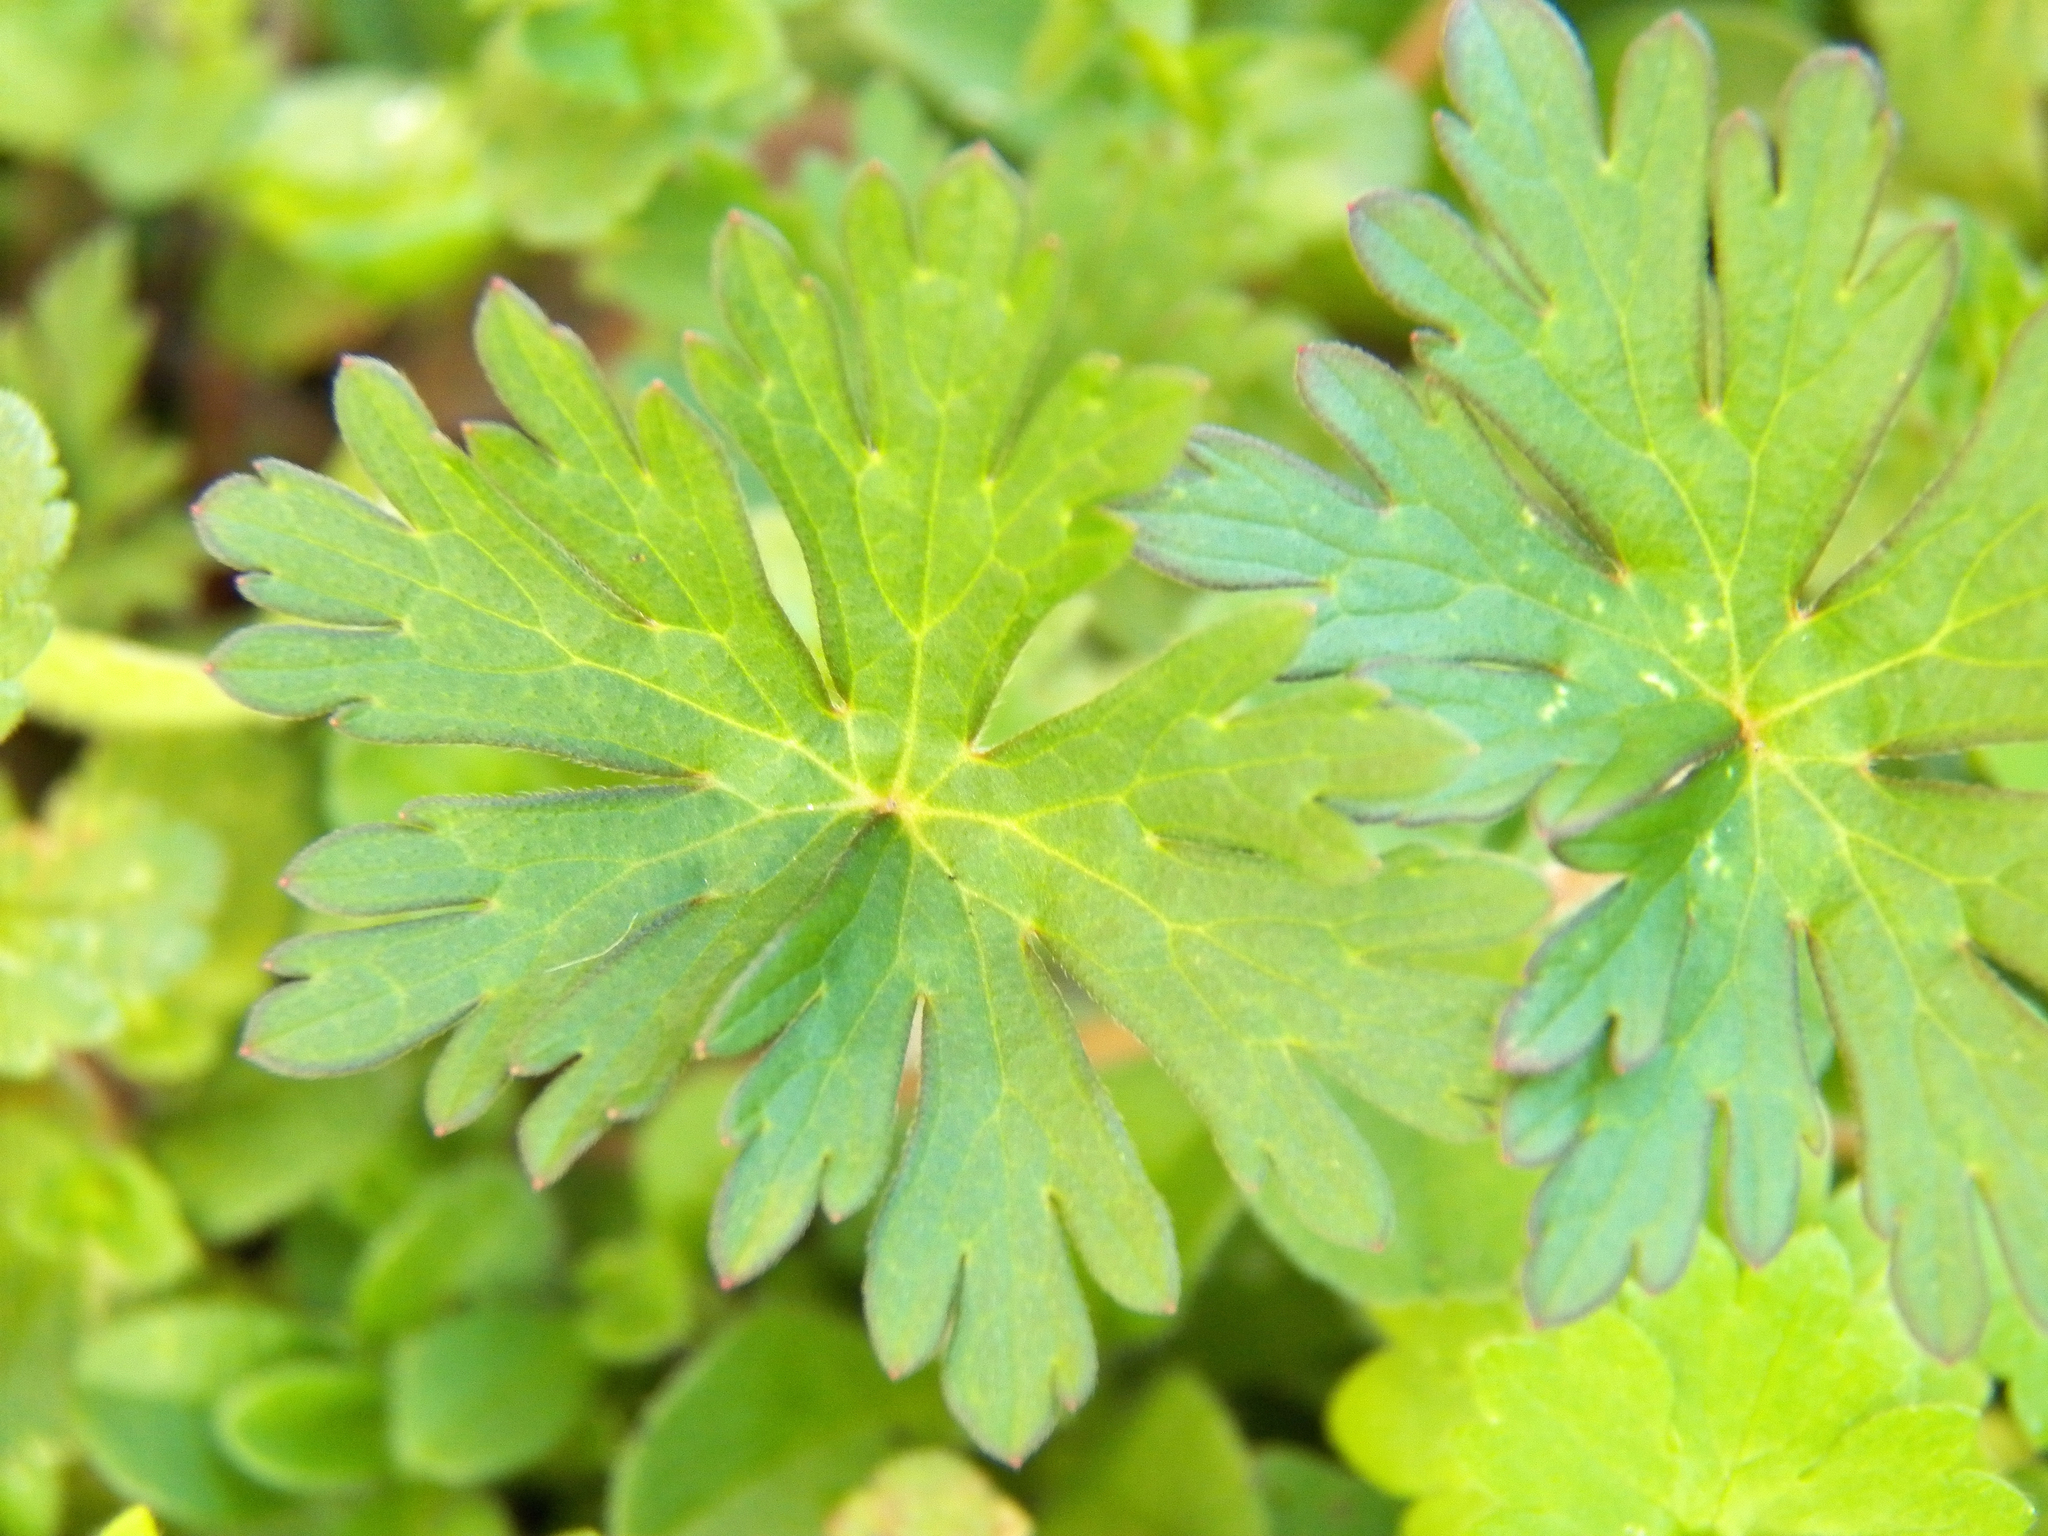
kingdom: Plantae
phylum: Tracheophyta
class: Magnoliopsida
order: Geraniales
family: Geraniaceae
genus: Geranium
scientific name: Geranium carolinianum
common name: Carolina crane's-bill
